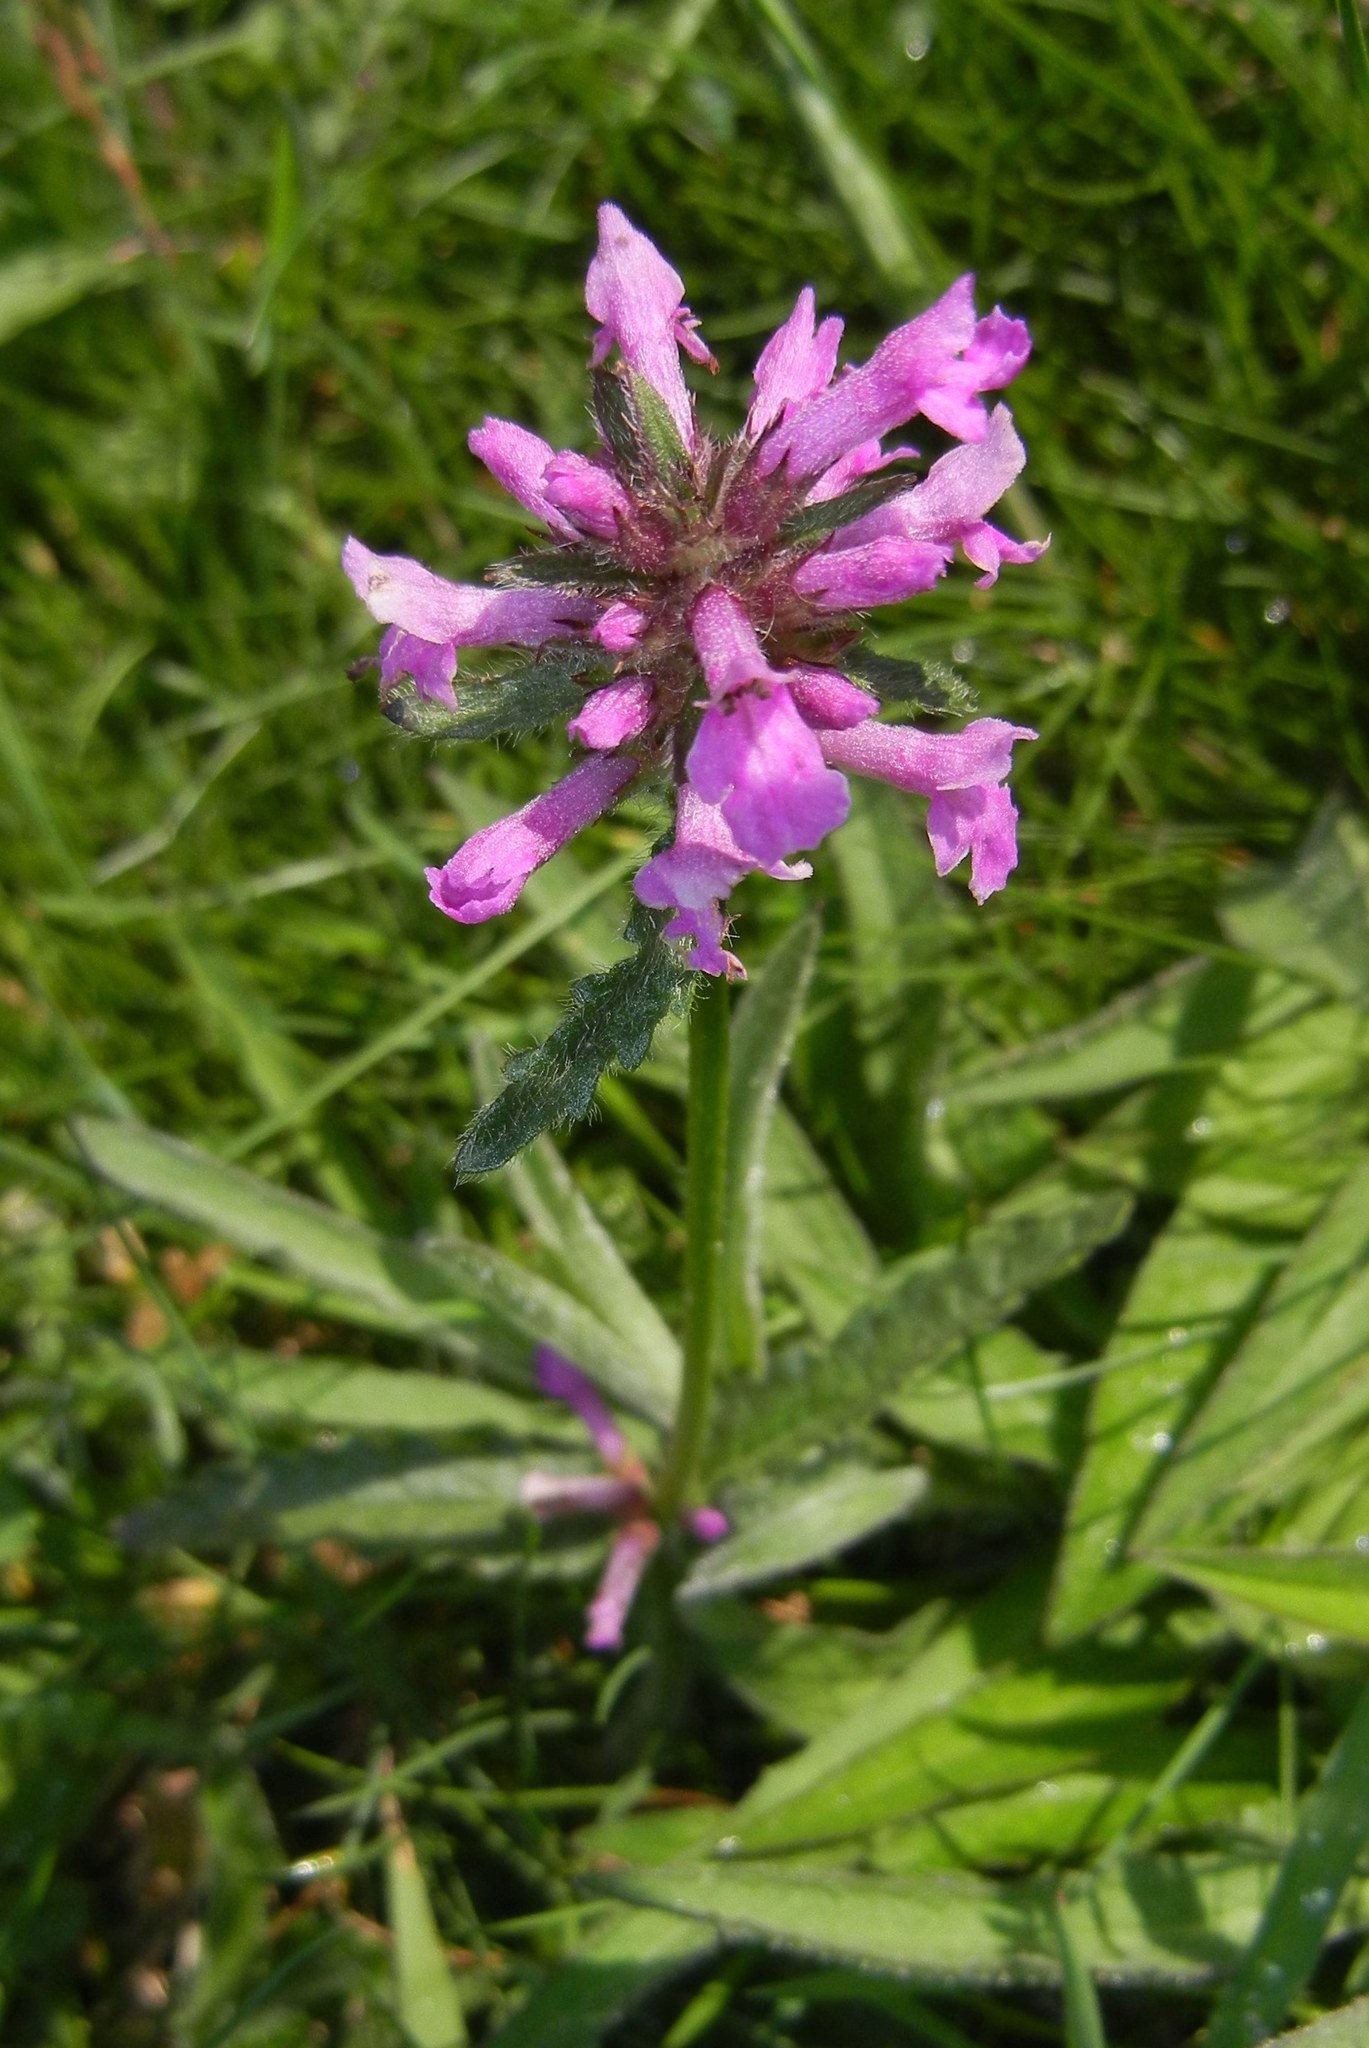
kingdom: Plantae
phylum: Tracheophyta
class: Magnoliopsida
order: Lamiales
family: Lamiaceae
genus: Betonica
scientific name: Betonica officinalis
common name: Bishop's-wort
